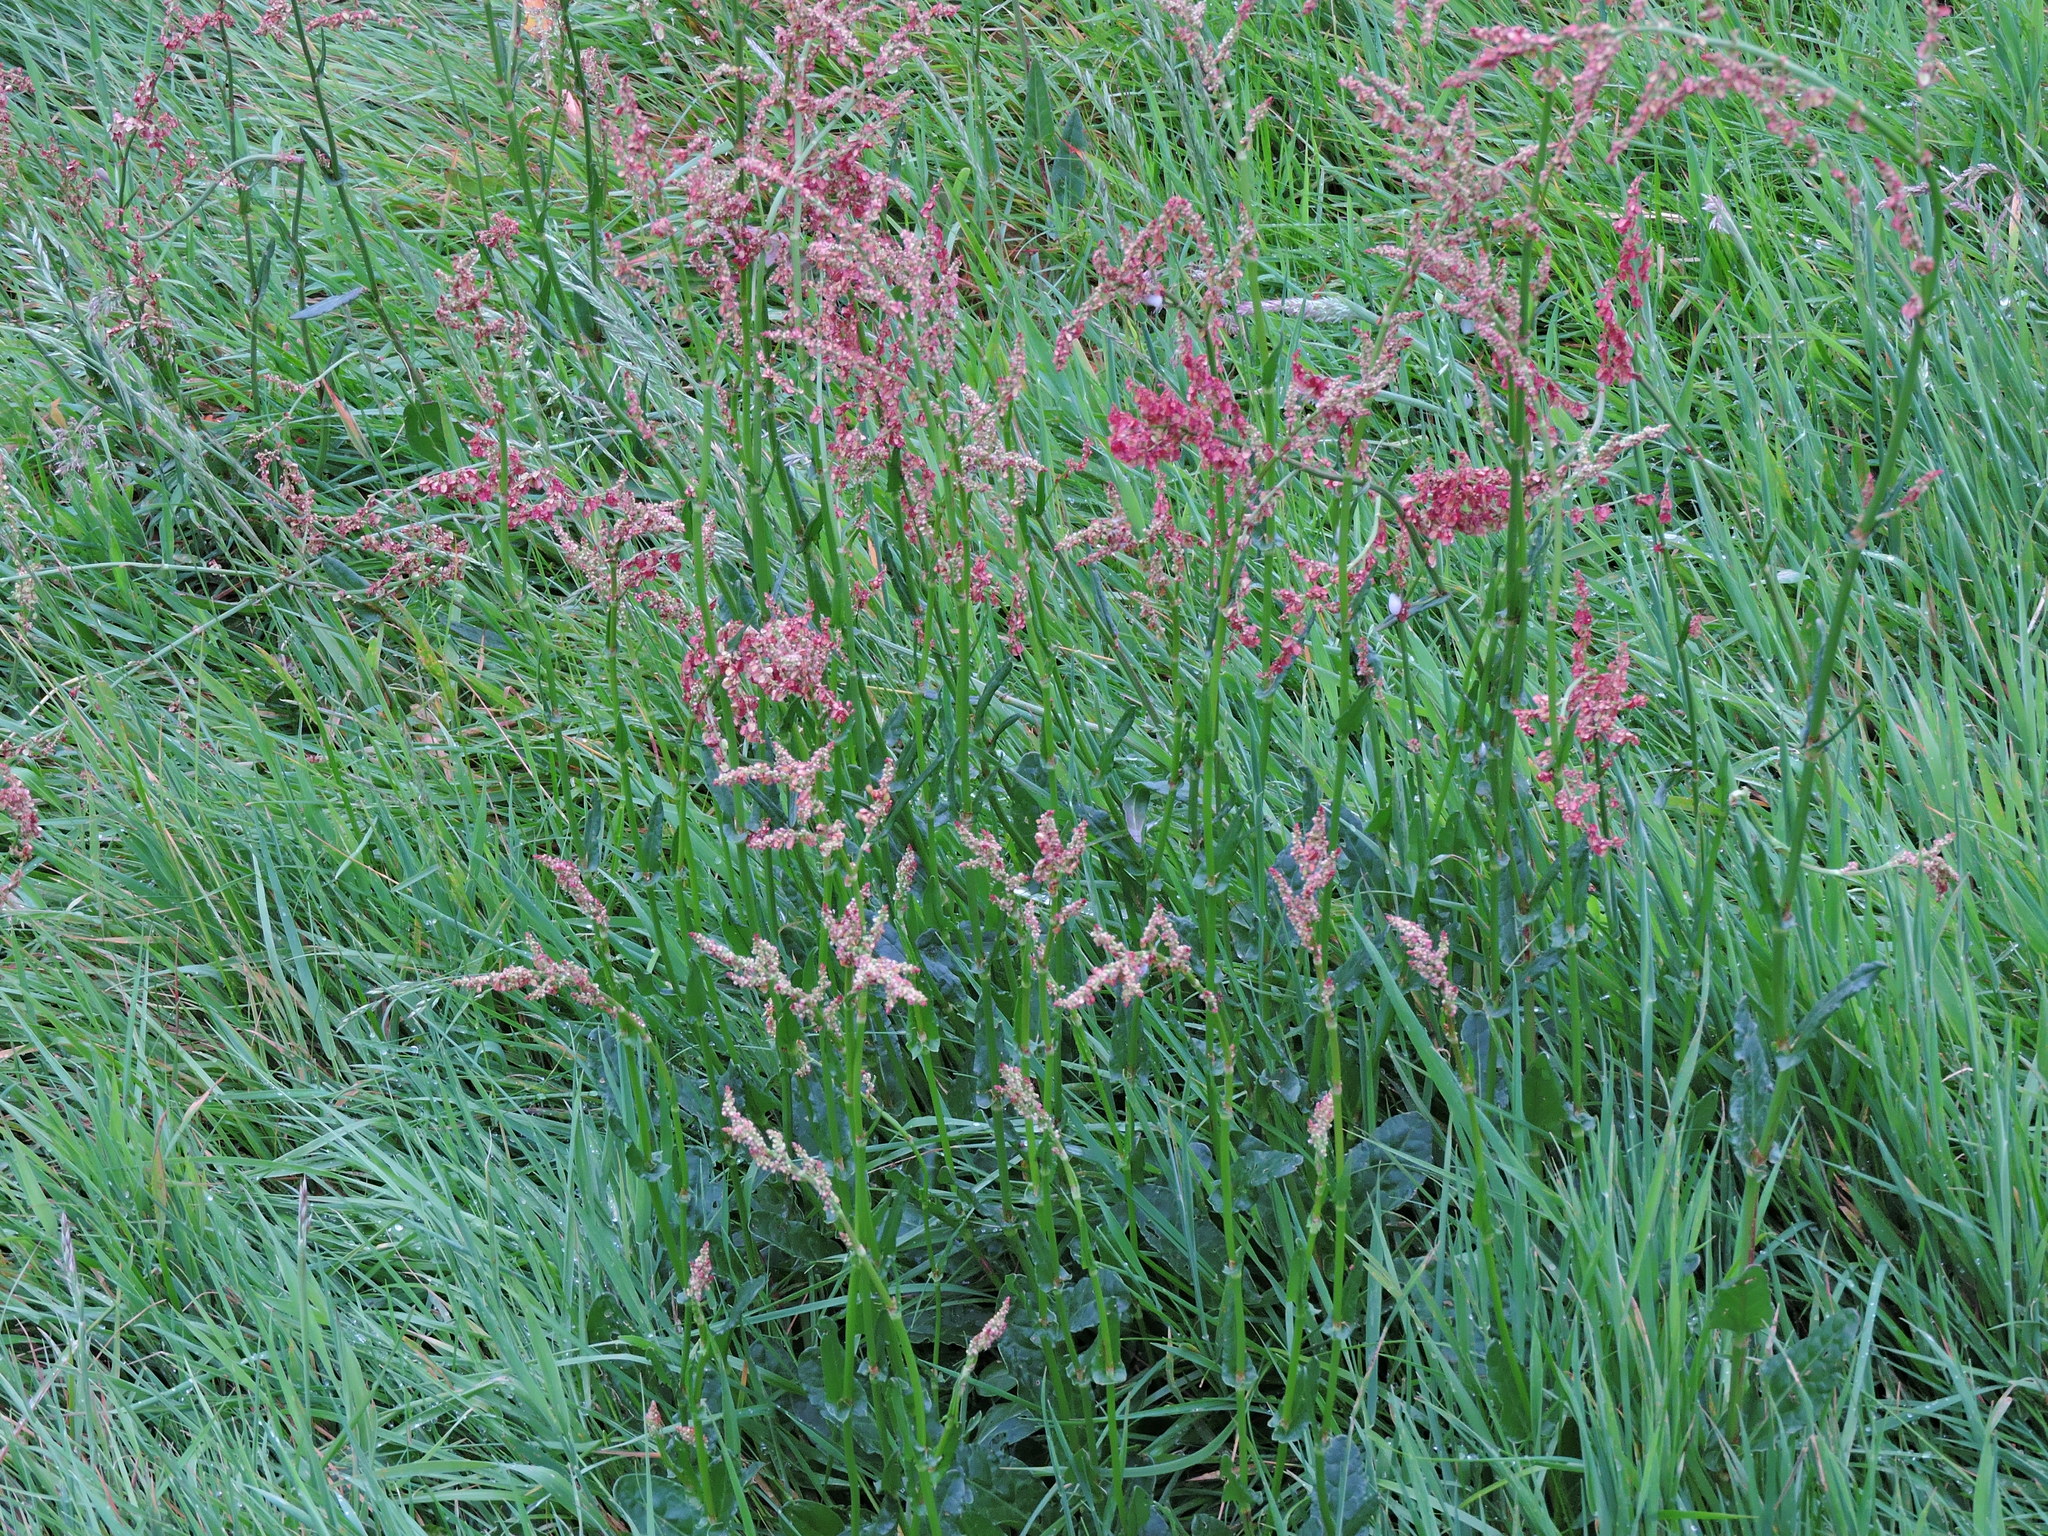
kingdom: Plantae
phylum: Tracheophyta
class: Magnoliopsida
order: Caryophyllales
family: Polygonaceae
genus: Rumex
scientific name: Rumex acetosa
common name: Garden sorrel
